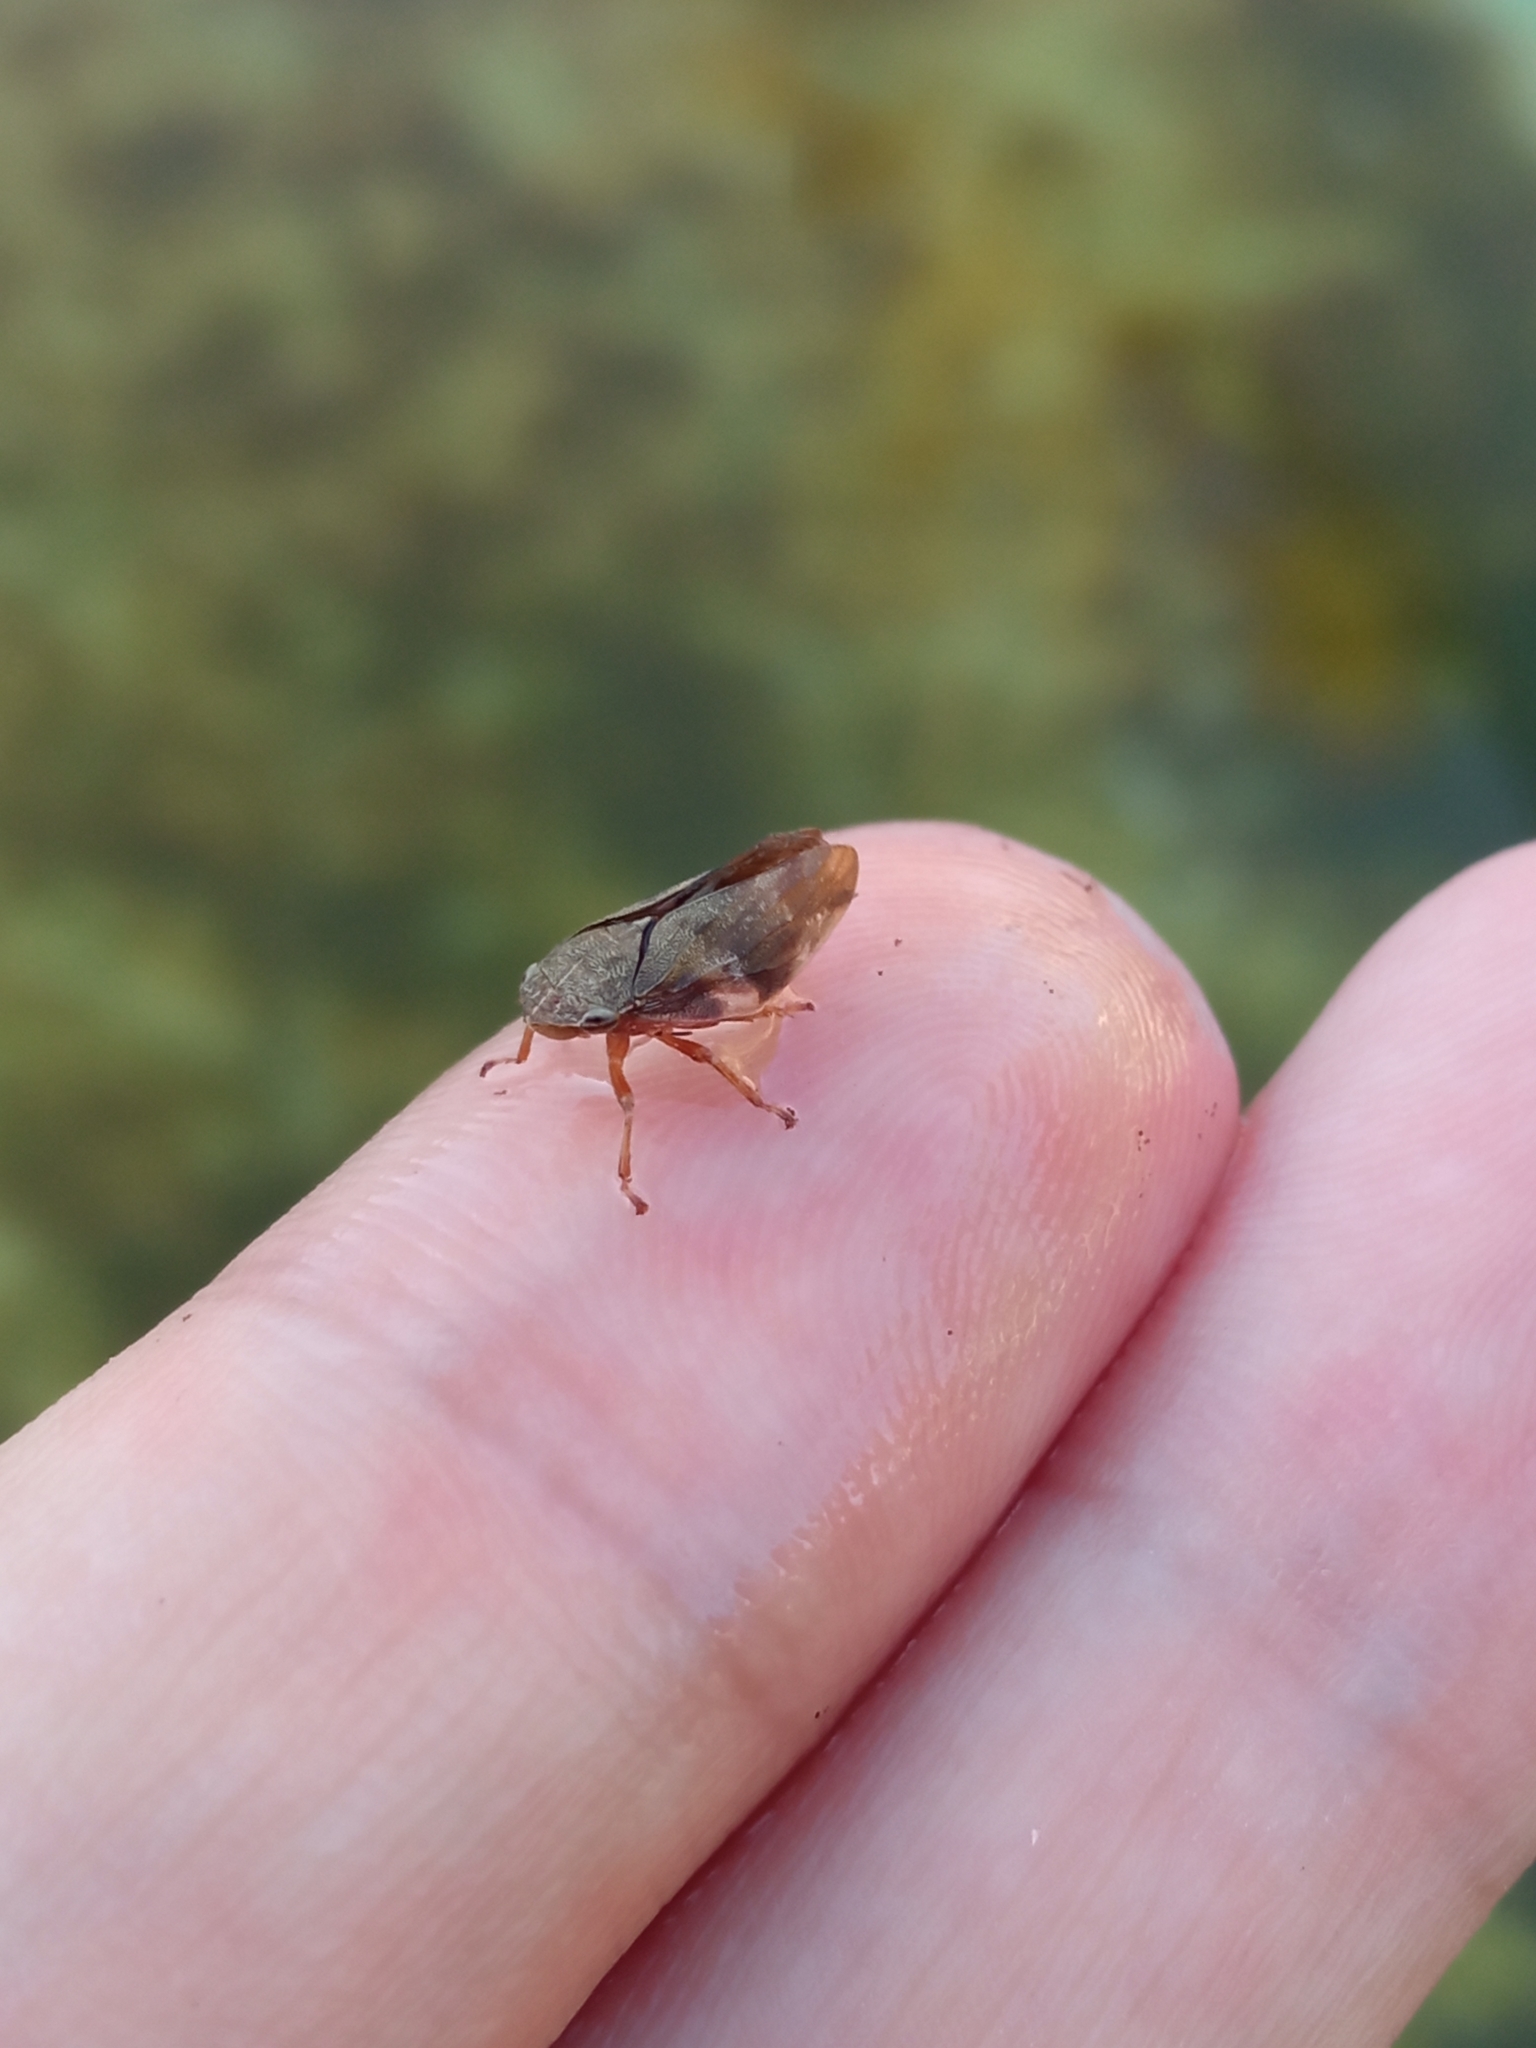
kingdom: Animalia
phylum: Arthropoda
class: Insecta
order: Hemiptera
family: Aphrophoridae
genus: Aphrophora
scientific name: Aphrophora alni
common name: European alder spittlebug
